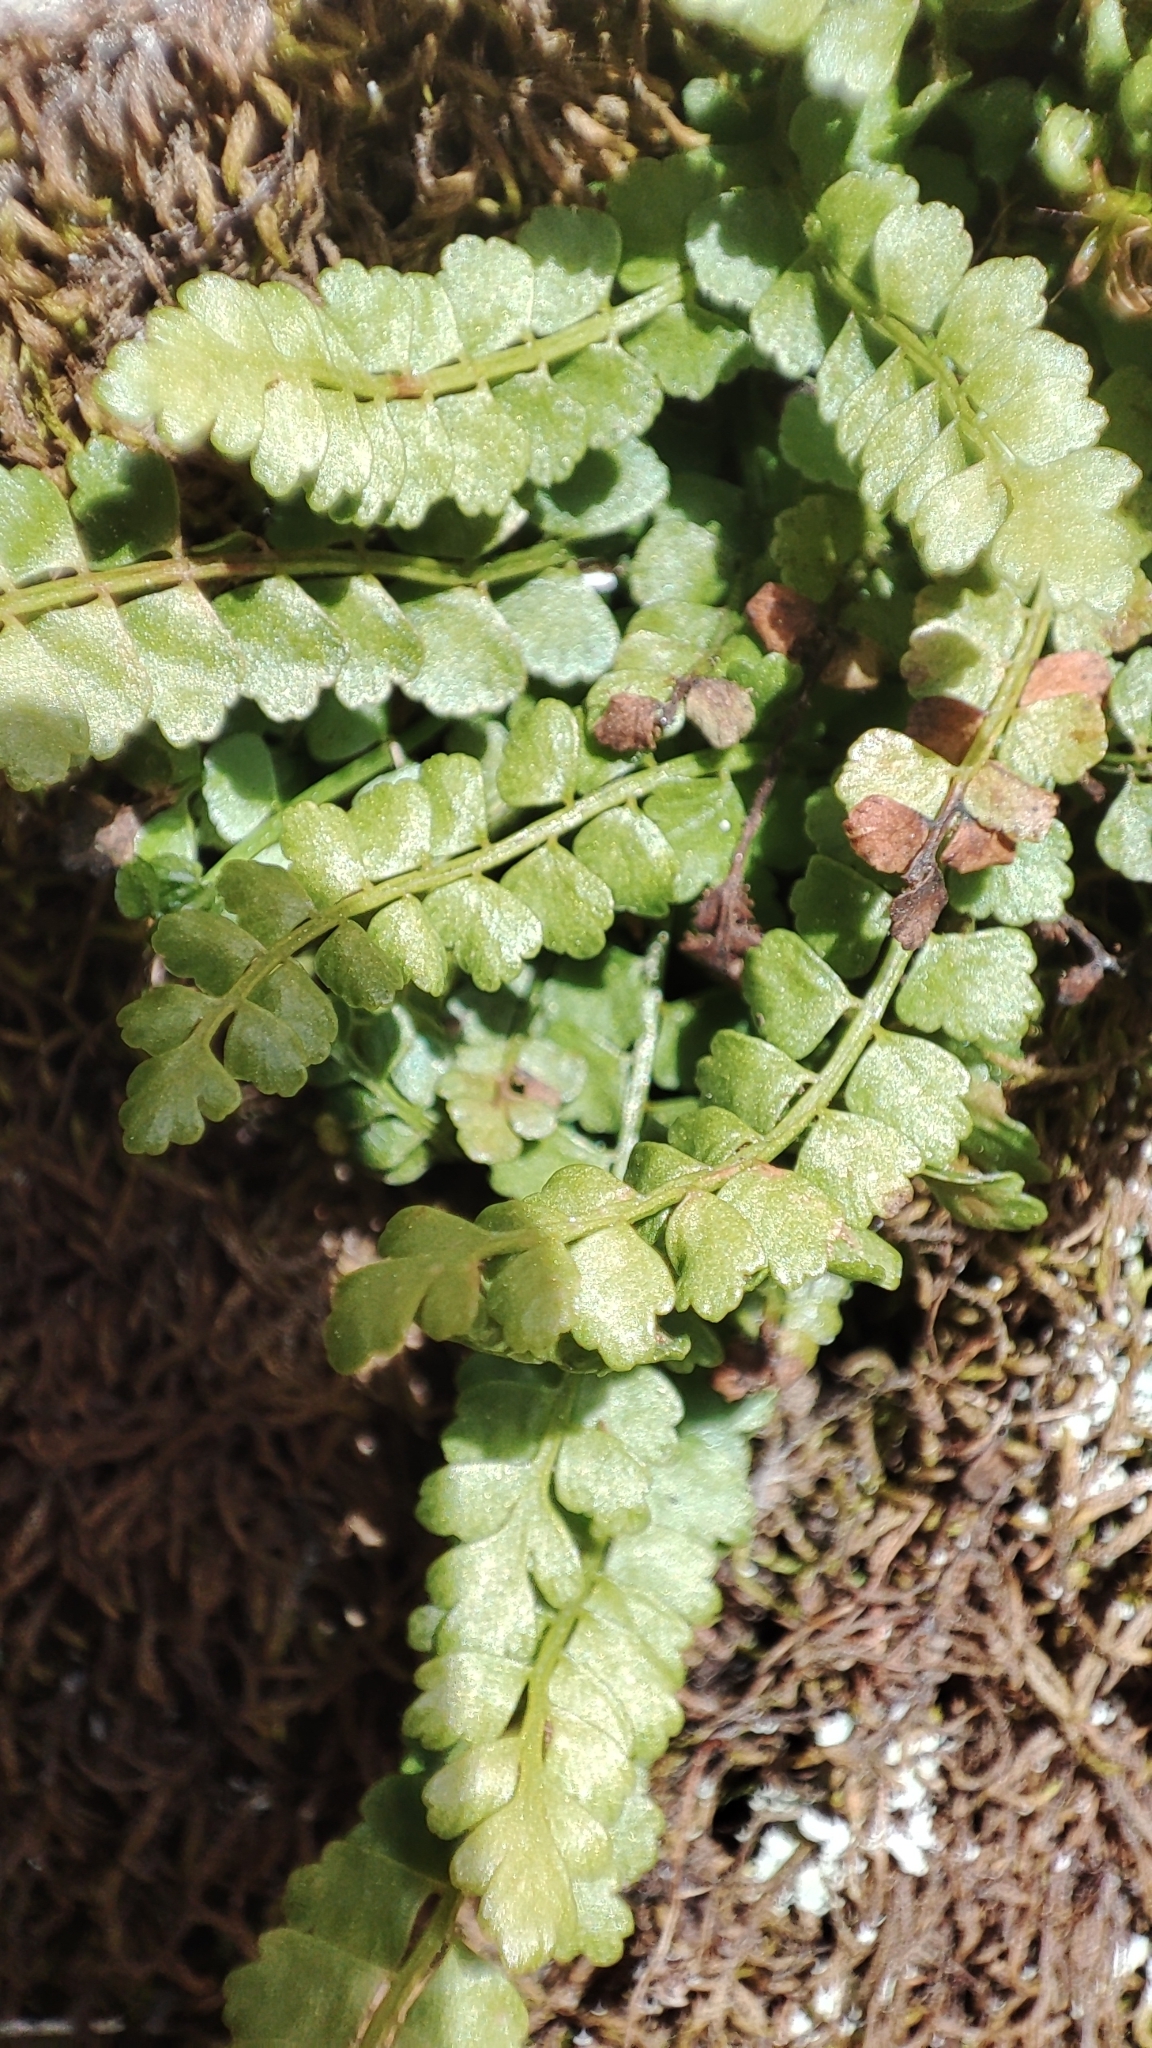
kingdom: Plantae
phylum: Tracheophyta
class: Polypodiopsida
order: Polypodiales
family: Aspleniaceae
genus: Asplenium
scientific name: Asplenium viride
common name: Green spleenwort
